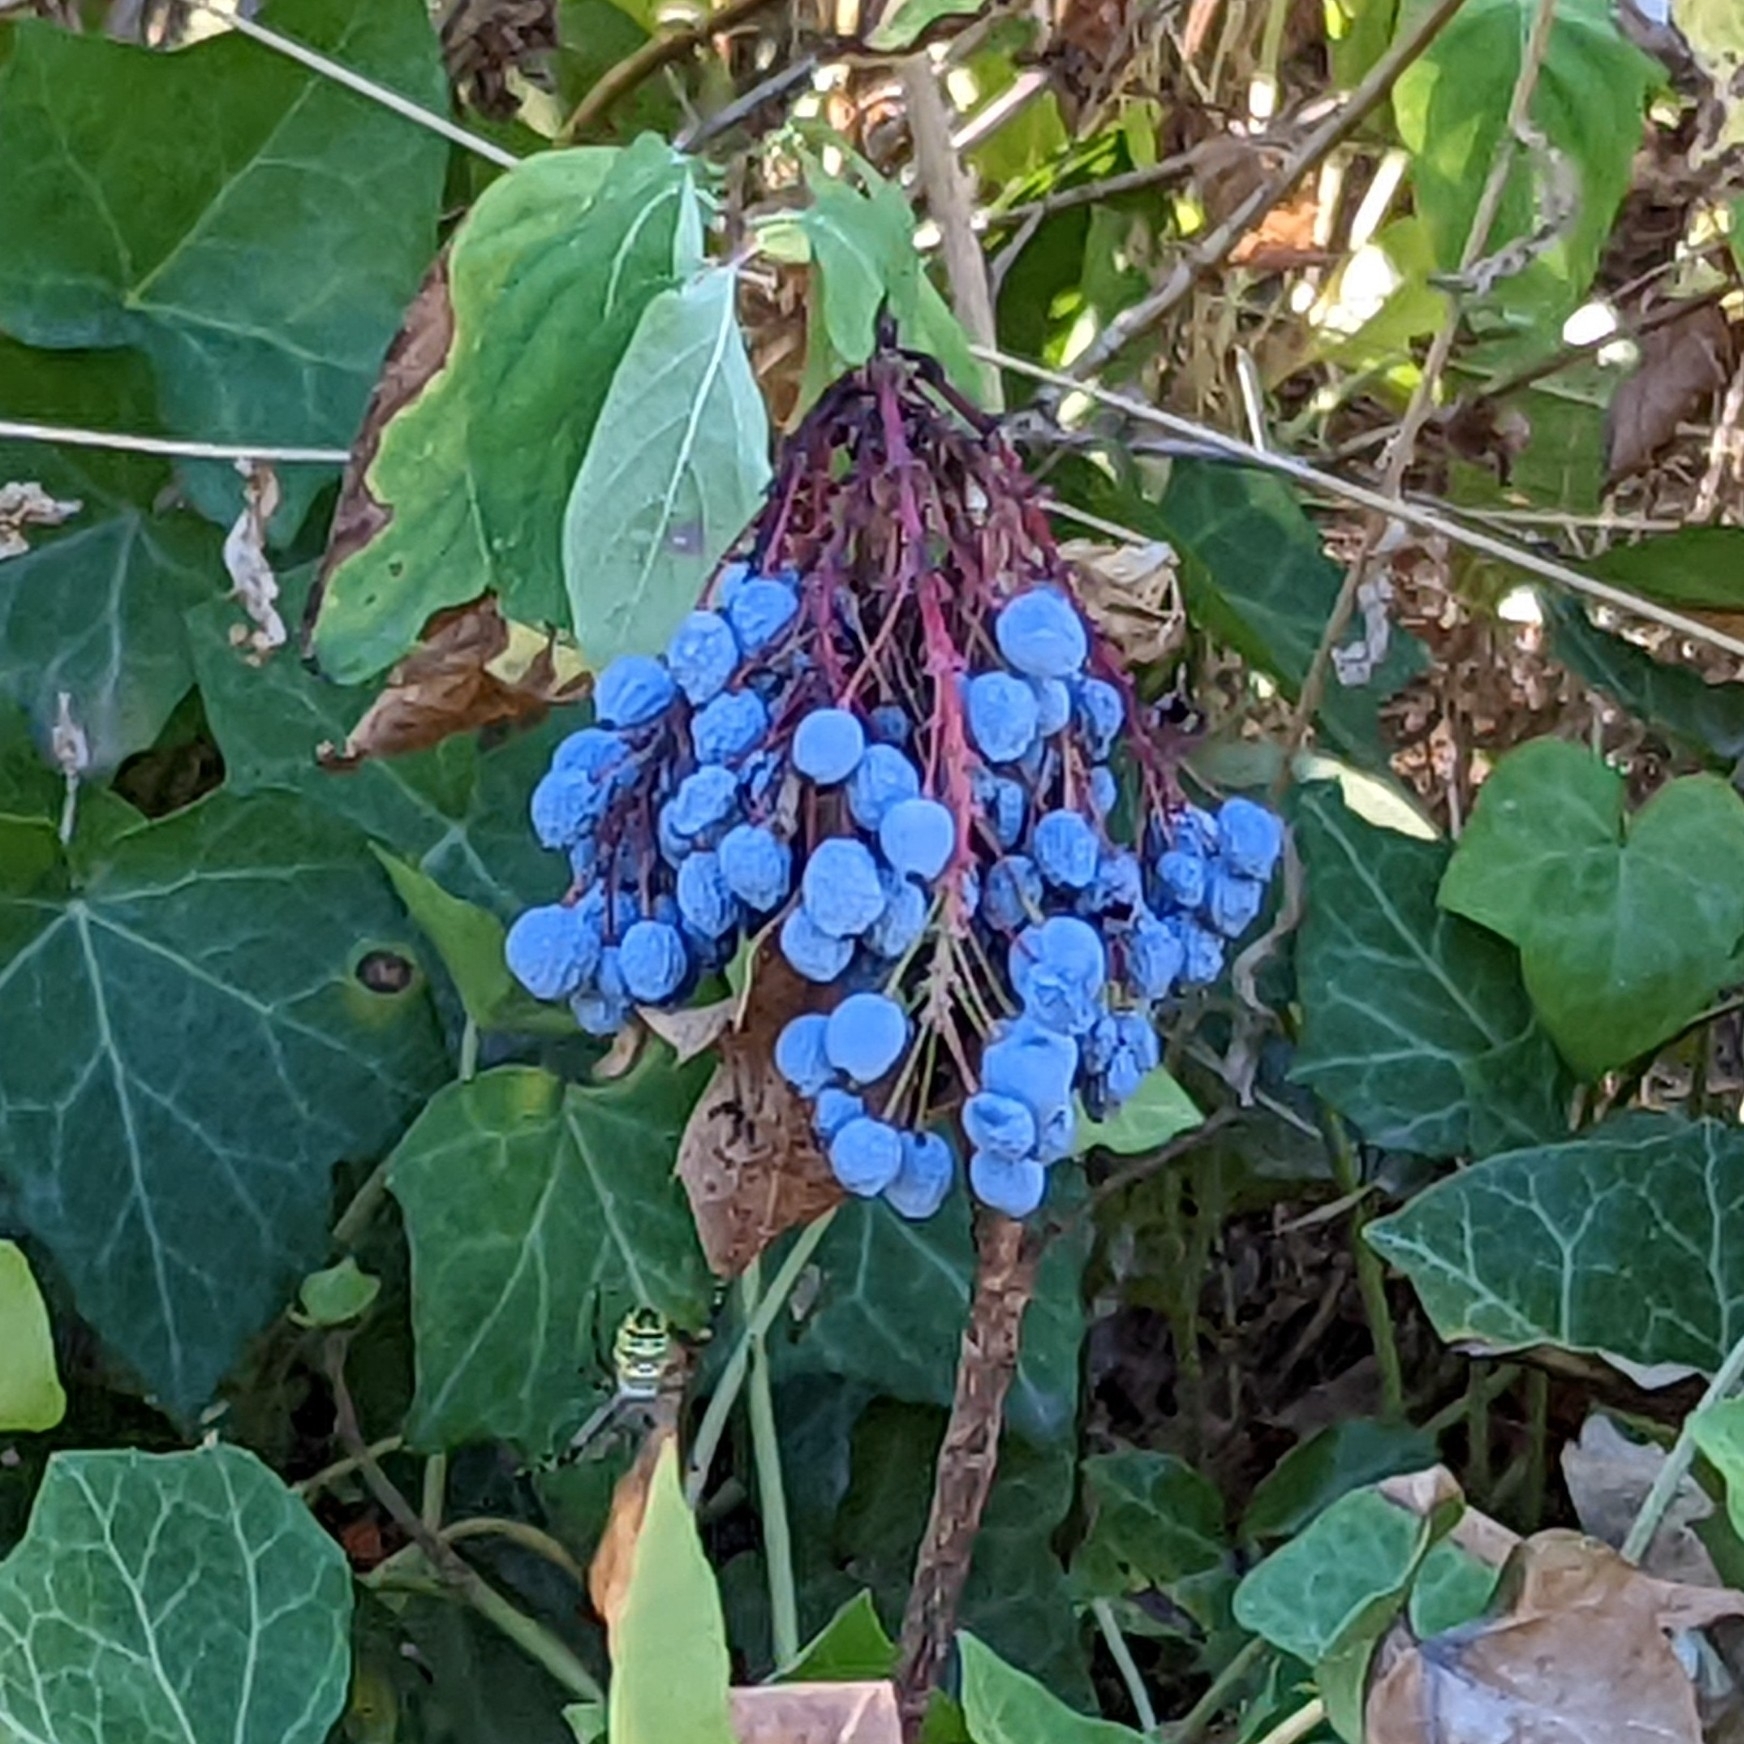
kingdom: Plantae
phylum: Tracheophyta
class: Magnoliopsida
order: Ranunculales
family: Berberidaceae
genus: Mahonia
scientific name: Mahonia aquifolium
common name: Oregon-grape
